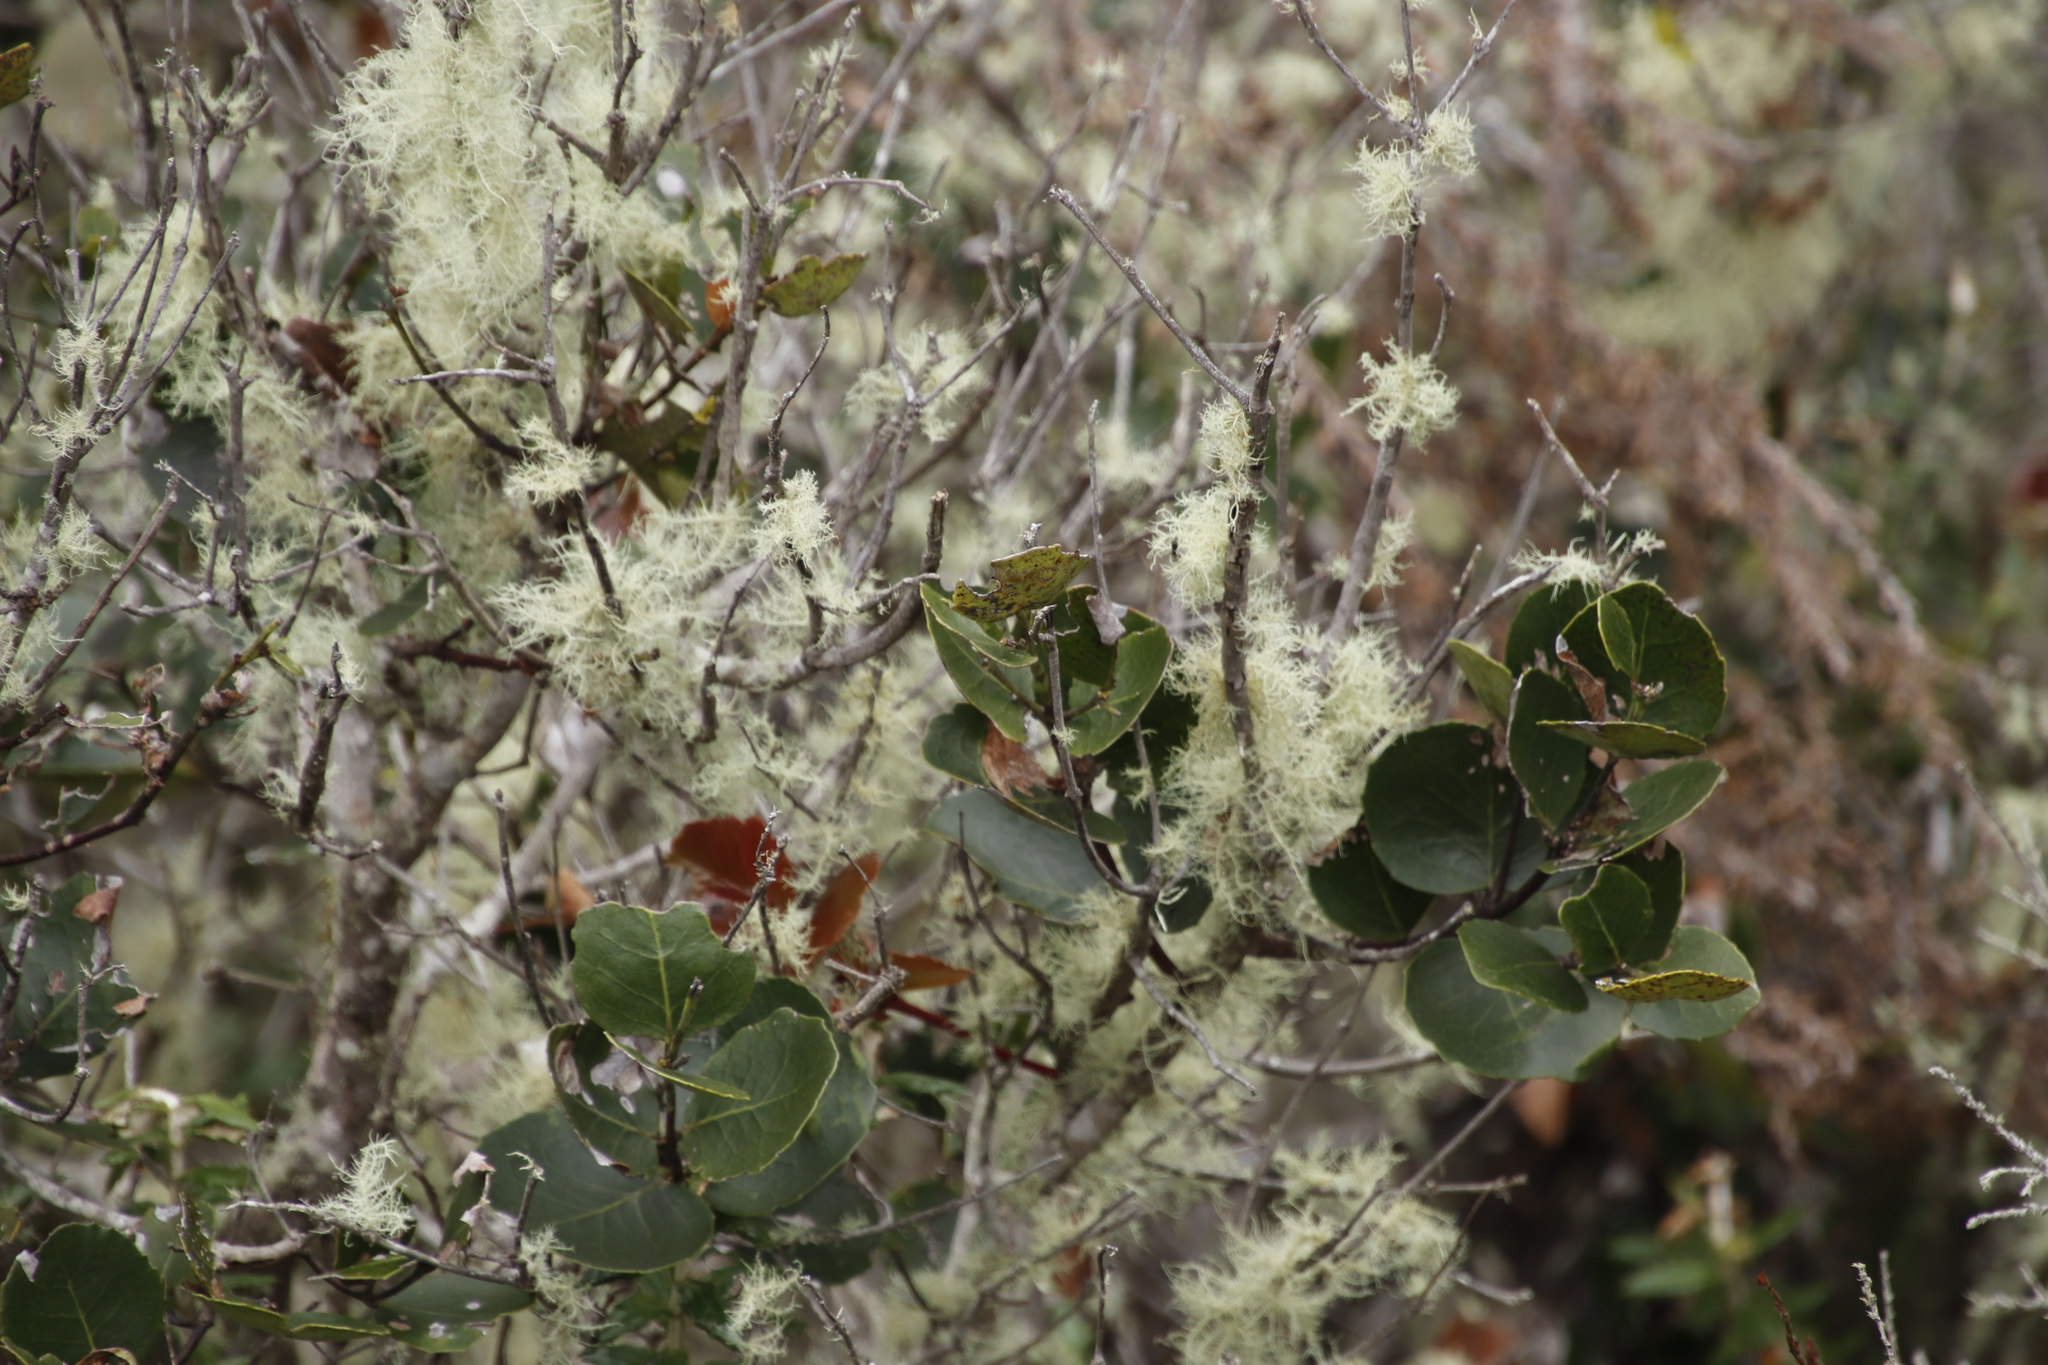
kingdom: Plantae
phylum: Tracheophyta
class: Magnoliopsida
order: Celastrales
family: Celastraceae
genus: Cassine
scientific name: Cassine peragua
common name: Cape saffron
